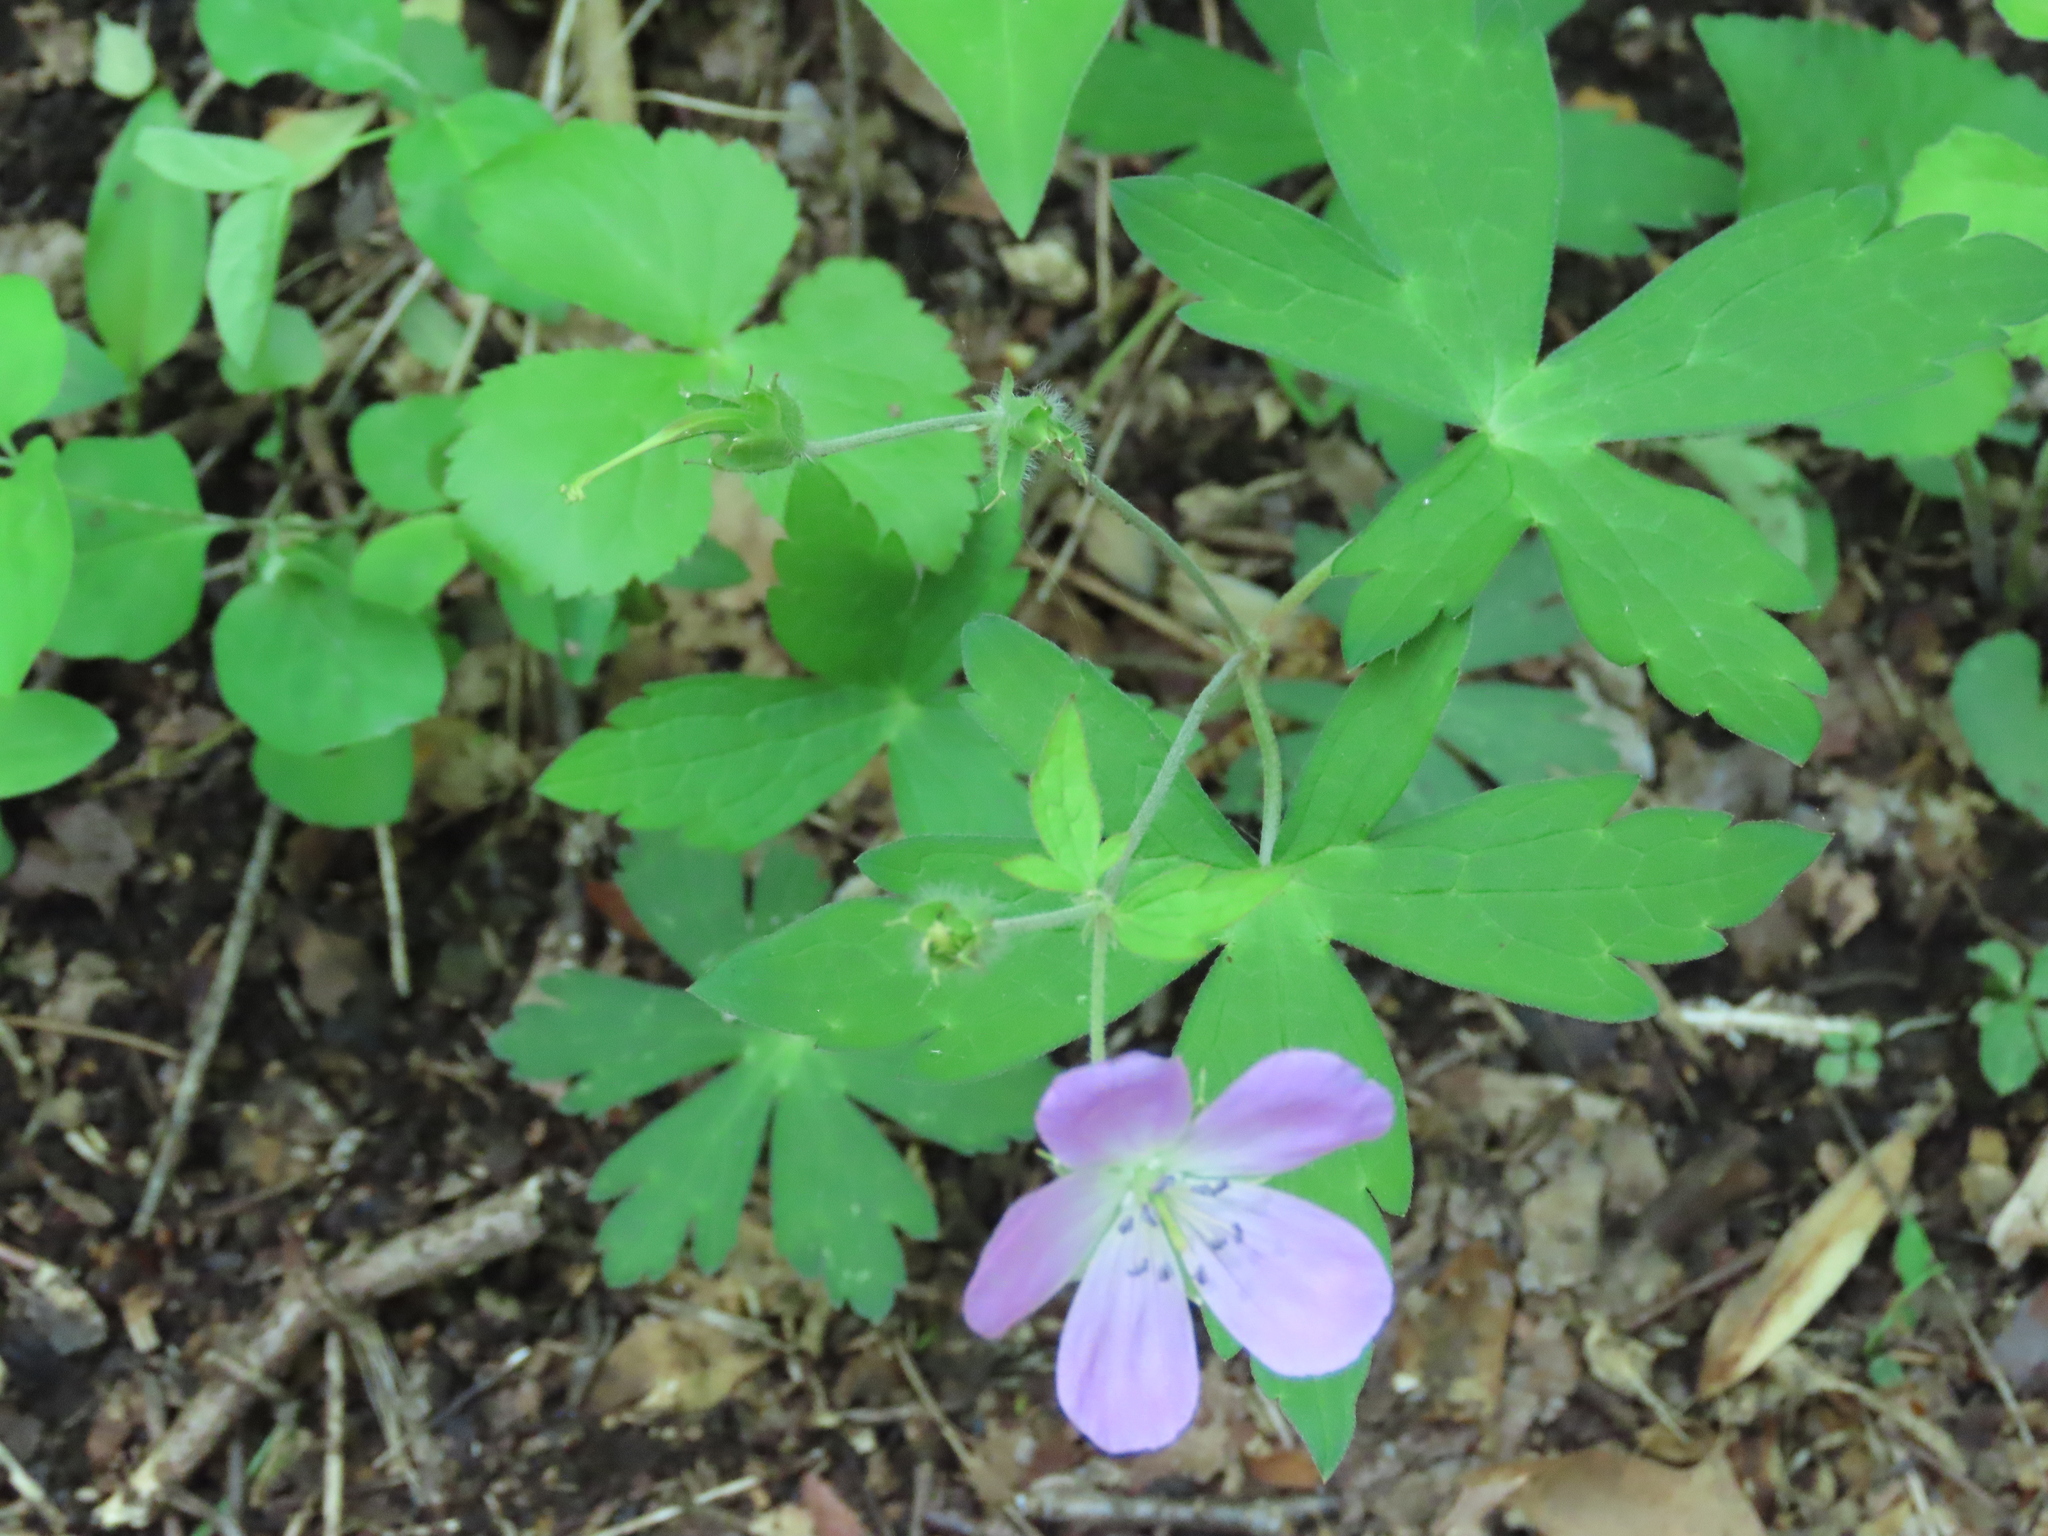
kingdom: Plantae
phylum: Tracheophyta
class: Magnoliopsida
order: Geraniales
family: Geraniaceae
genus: Geranium
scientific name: Geranium maculatum
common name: Spotted geranium
